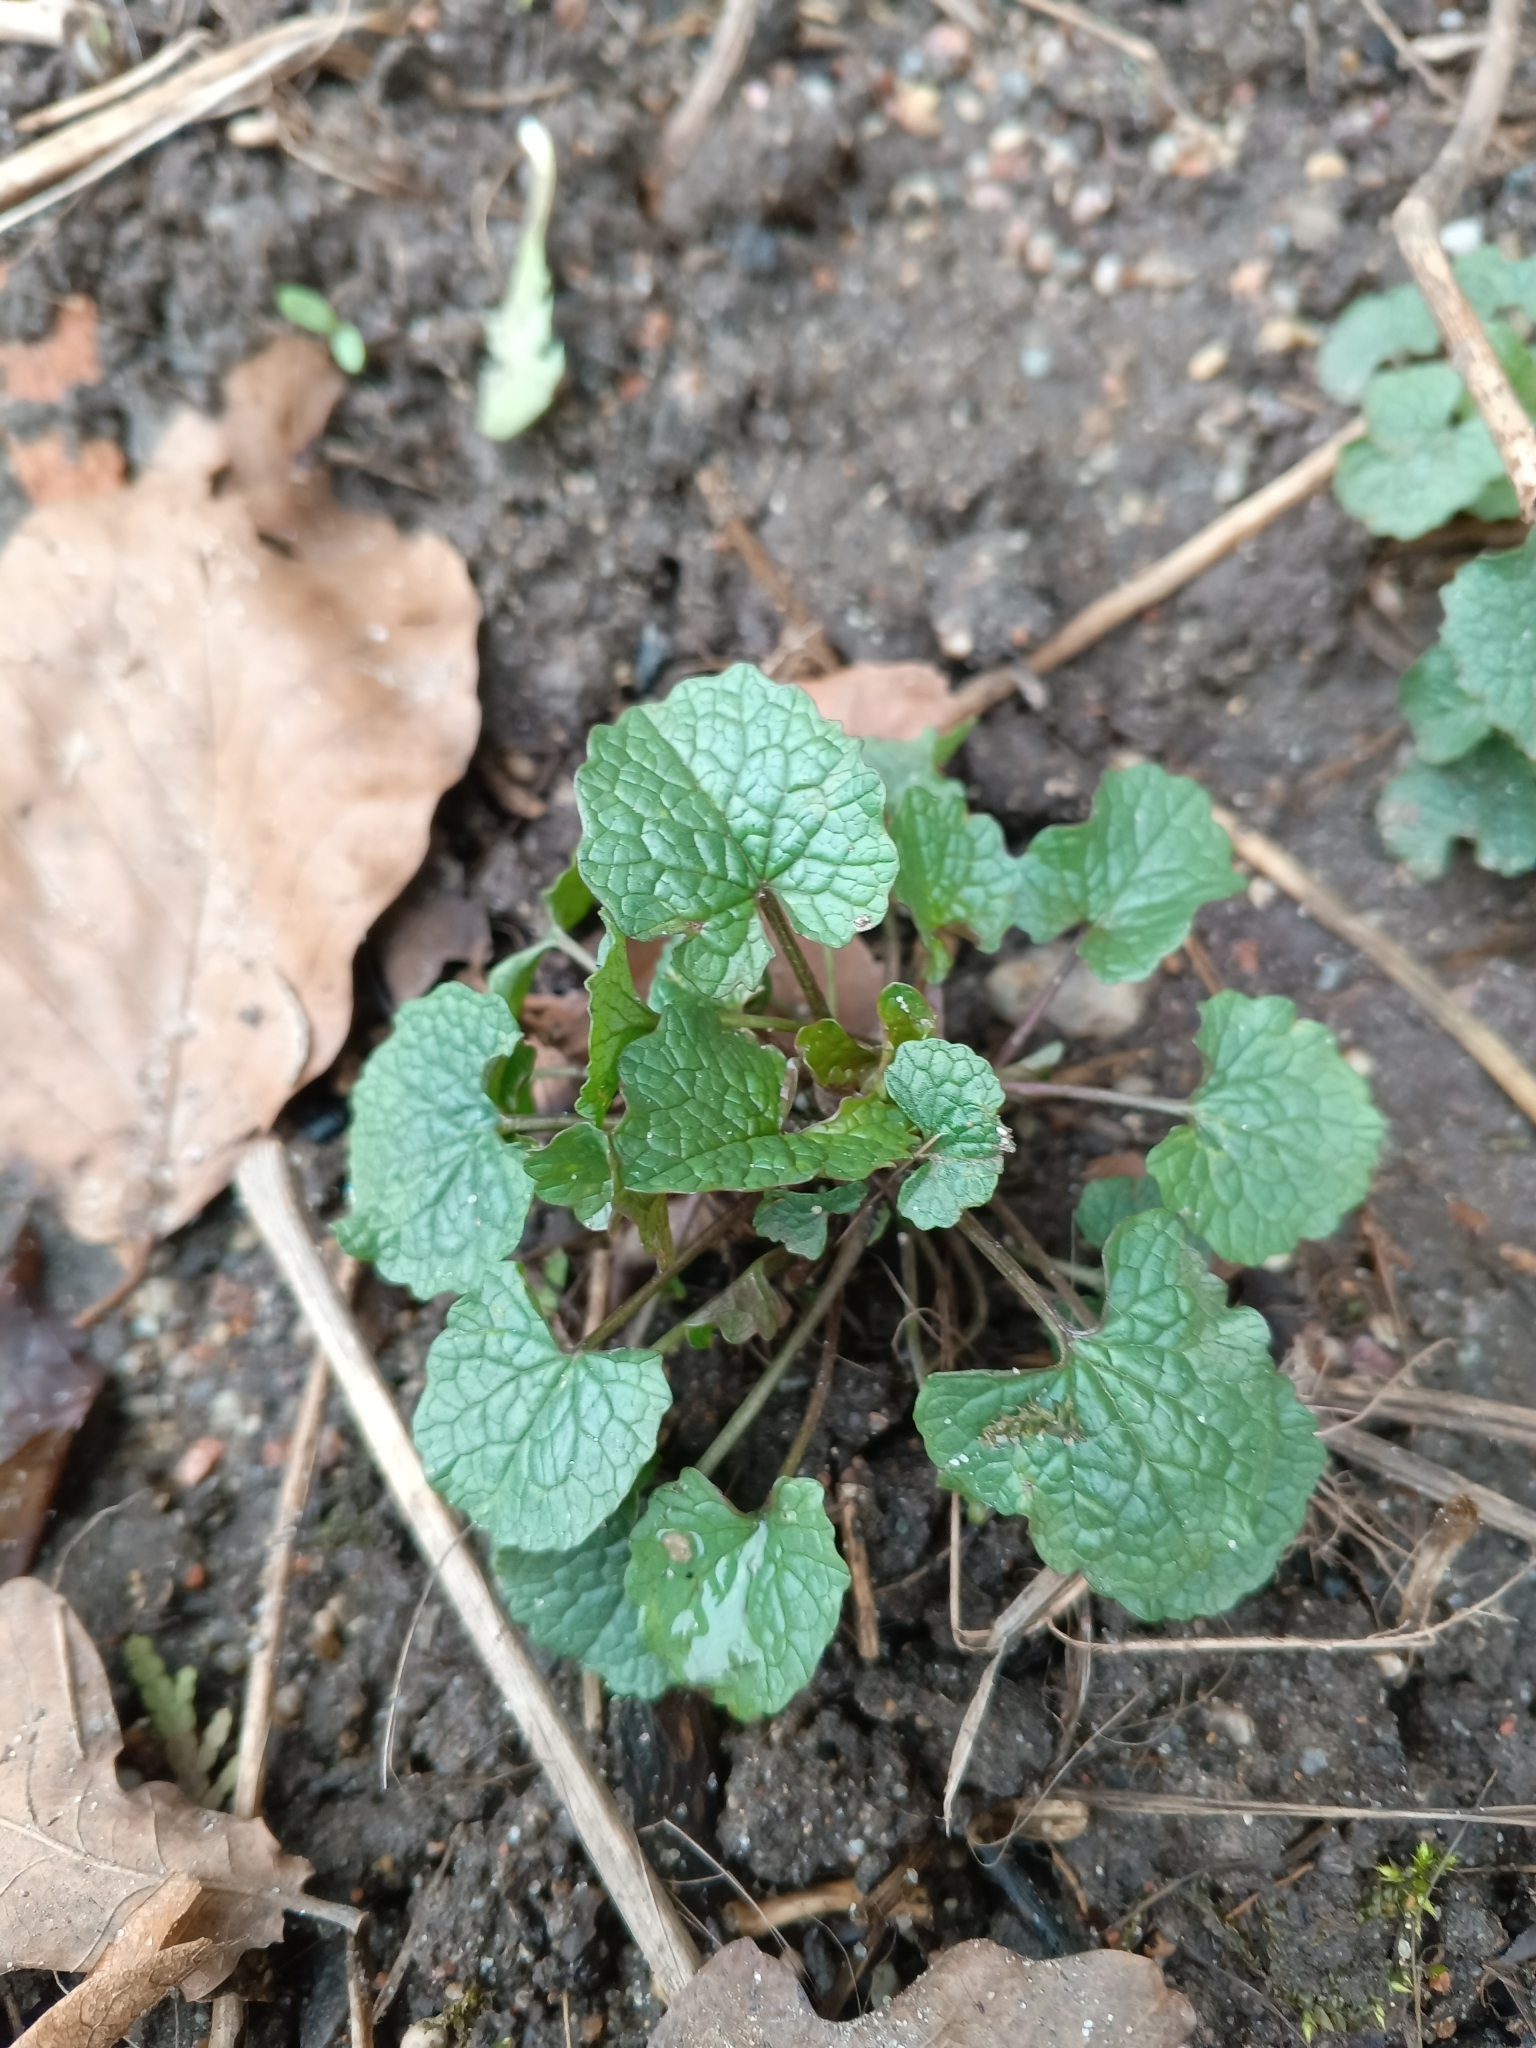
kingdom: Plantae
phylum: Tracheophyta
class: Magnoliopsida
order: Brassicales
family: Brassicaceae
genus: Alliaria
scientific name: Alliaria petiolata
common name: Garlic mustard
